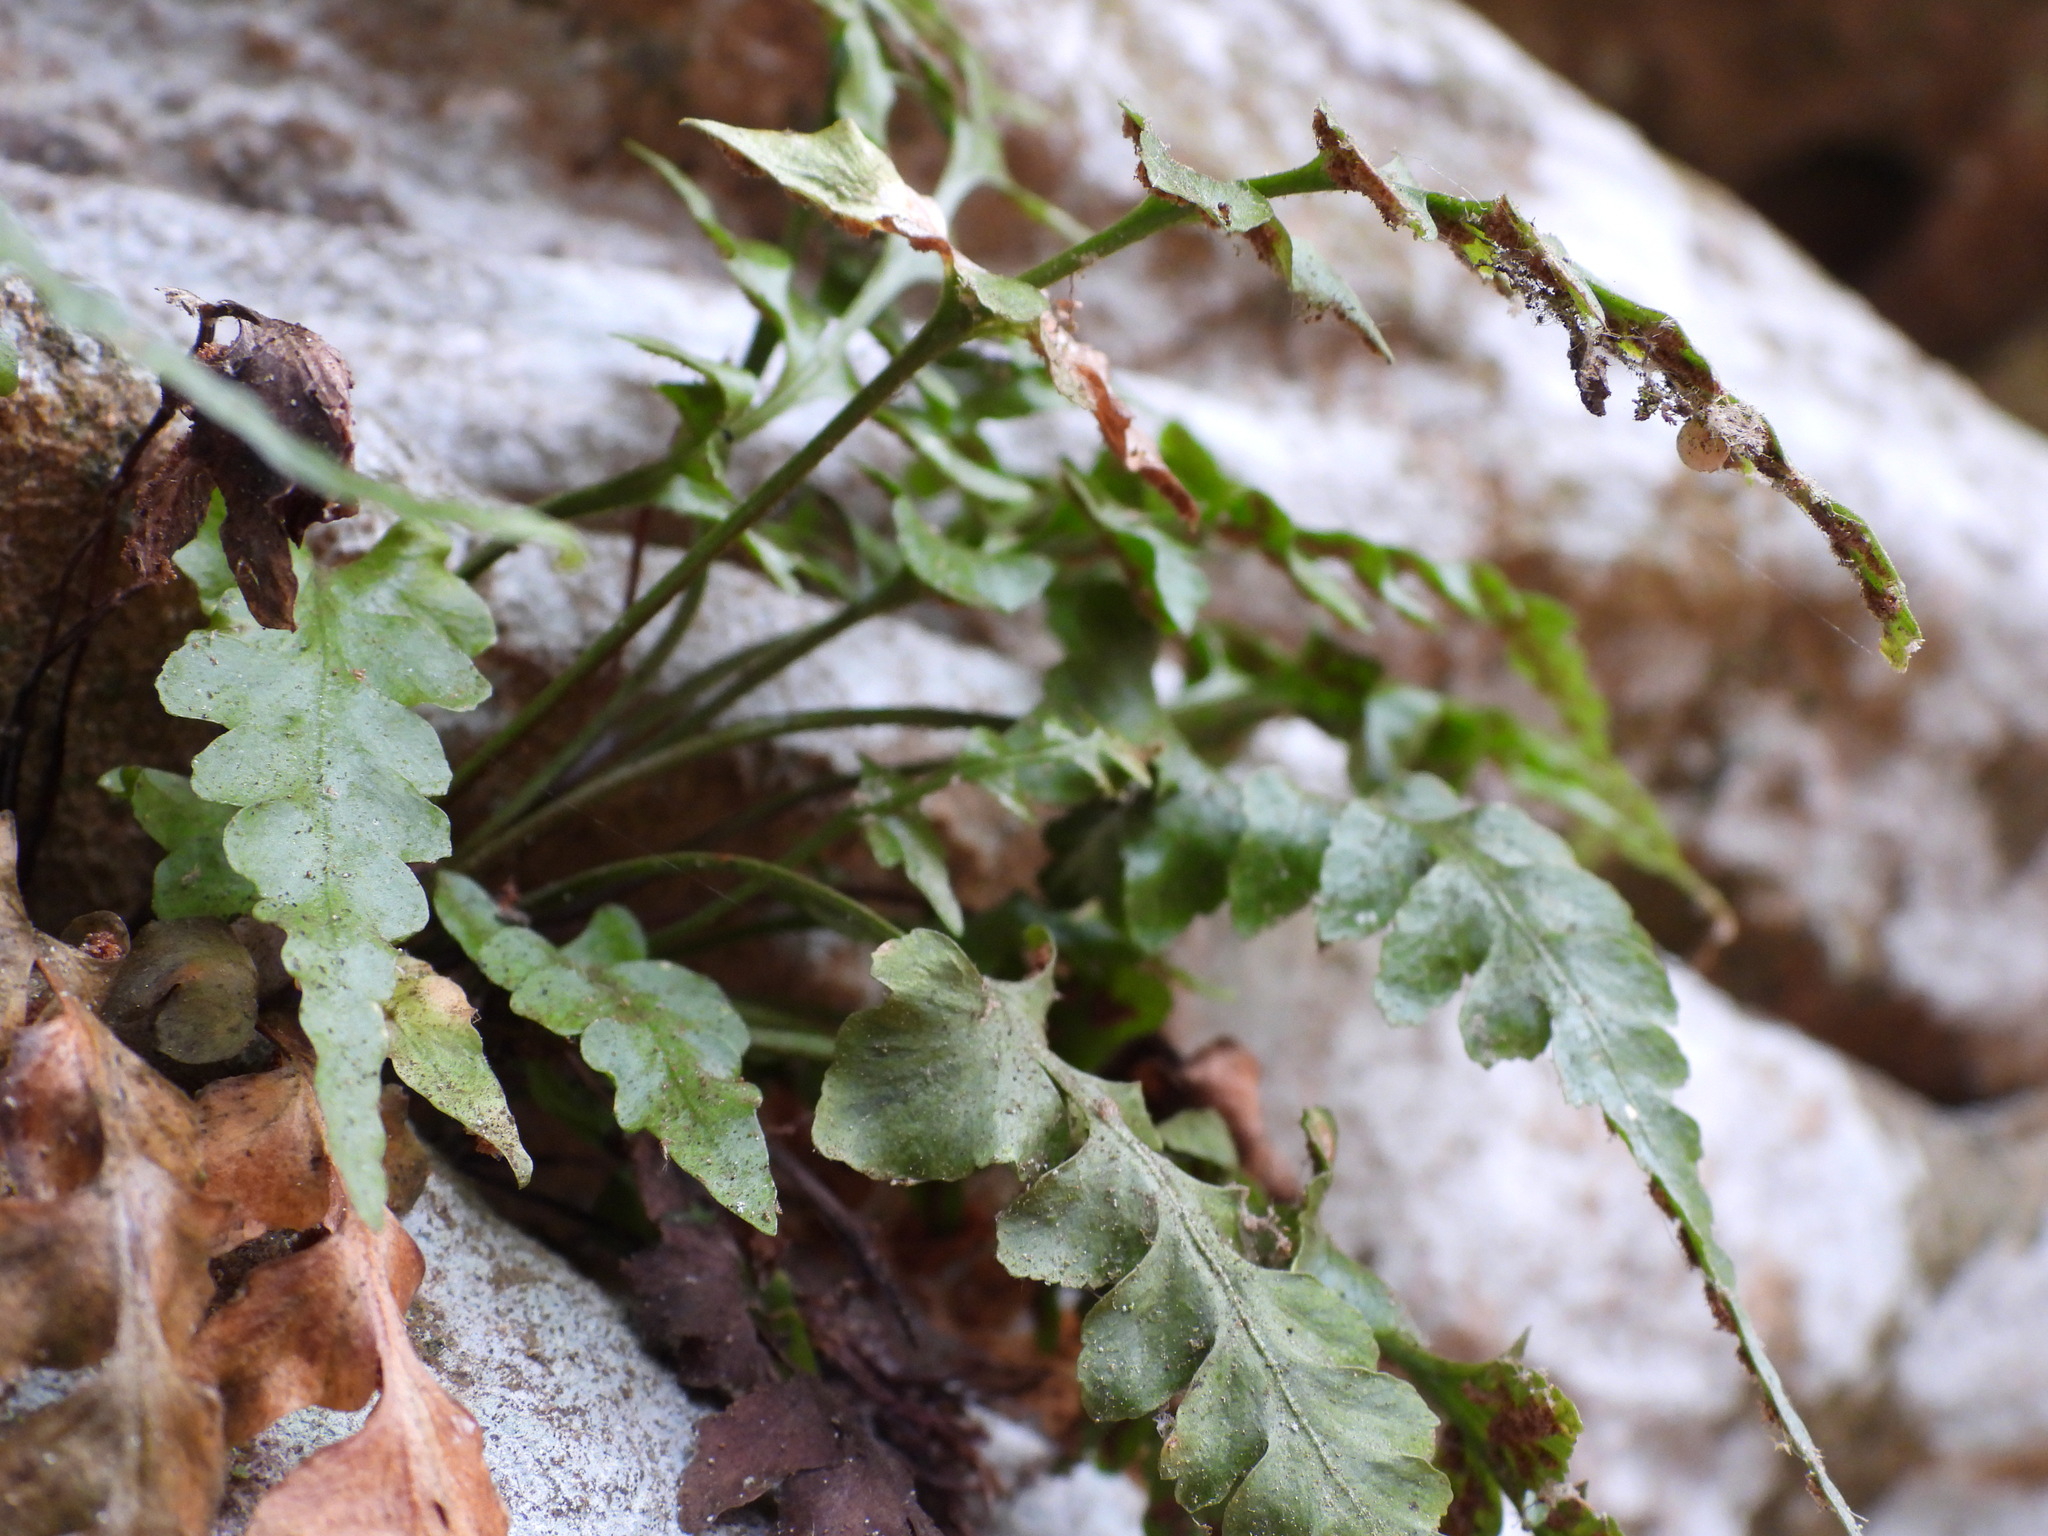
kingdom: Plantae
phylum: Tracheophyta
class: Polypodiopsida
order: Polypodiales
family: Aspleniaceae
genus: Asplenium
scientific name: Asplenium pinnatifidum
